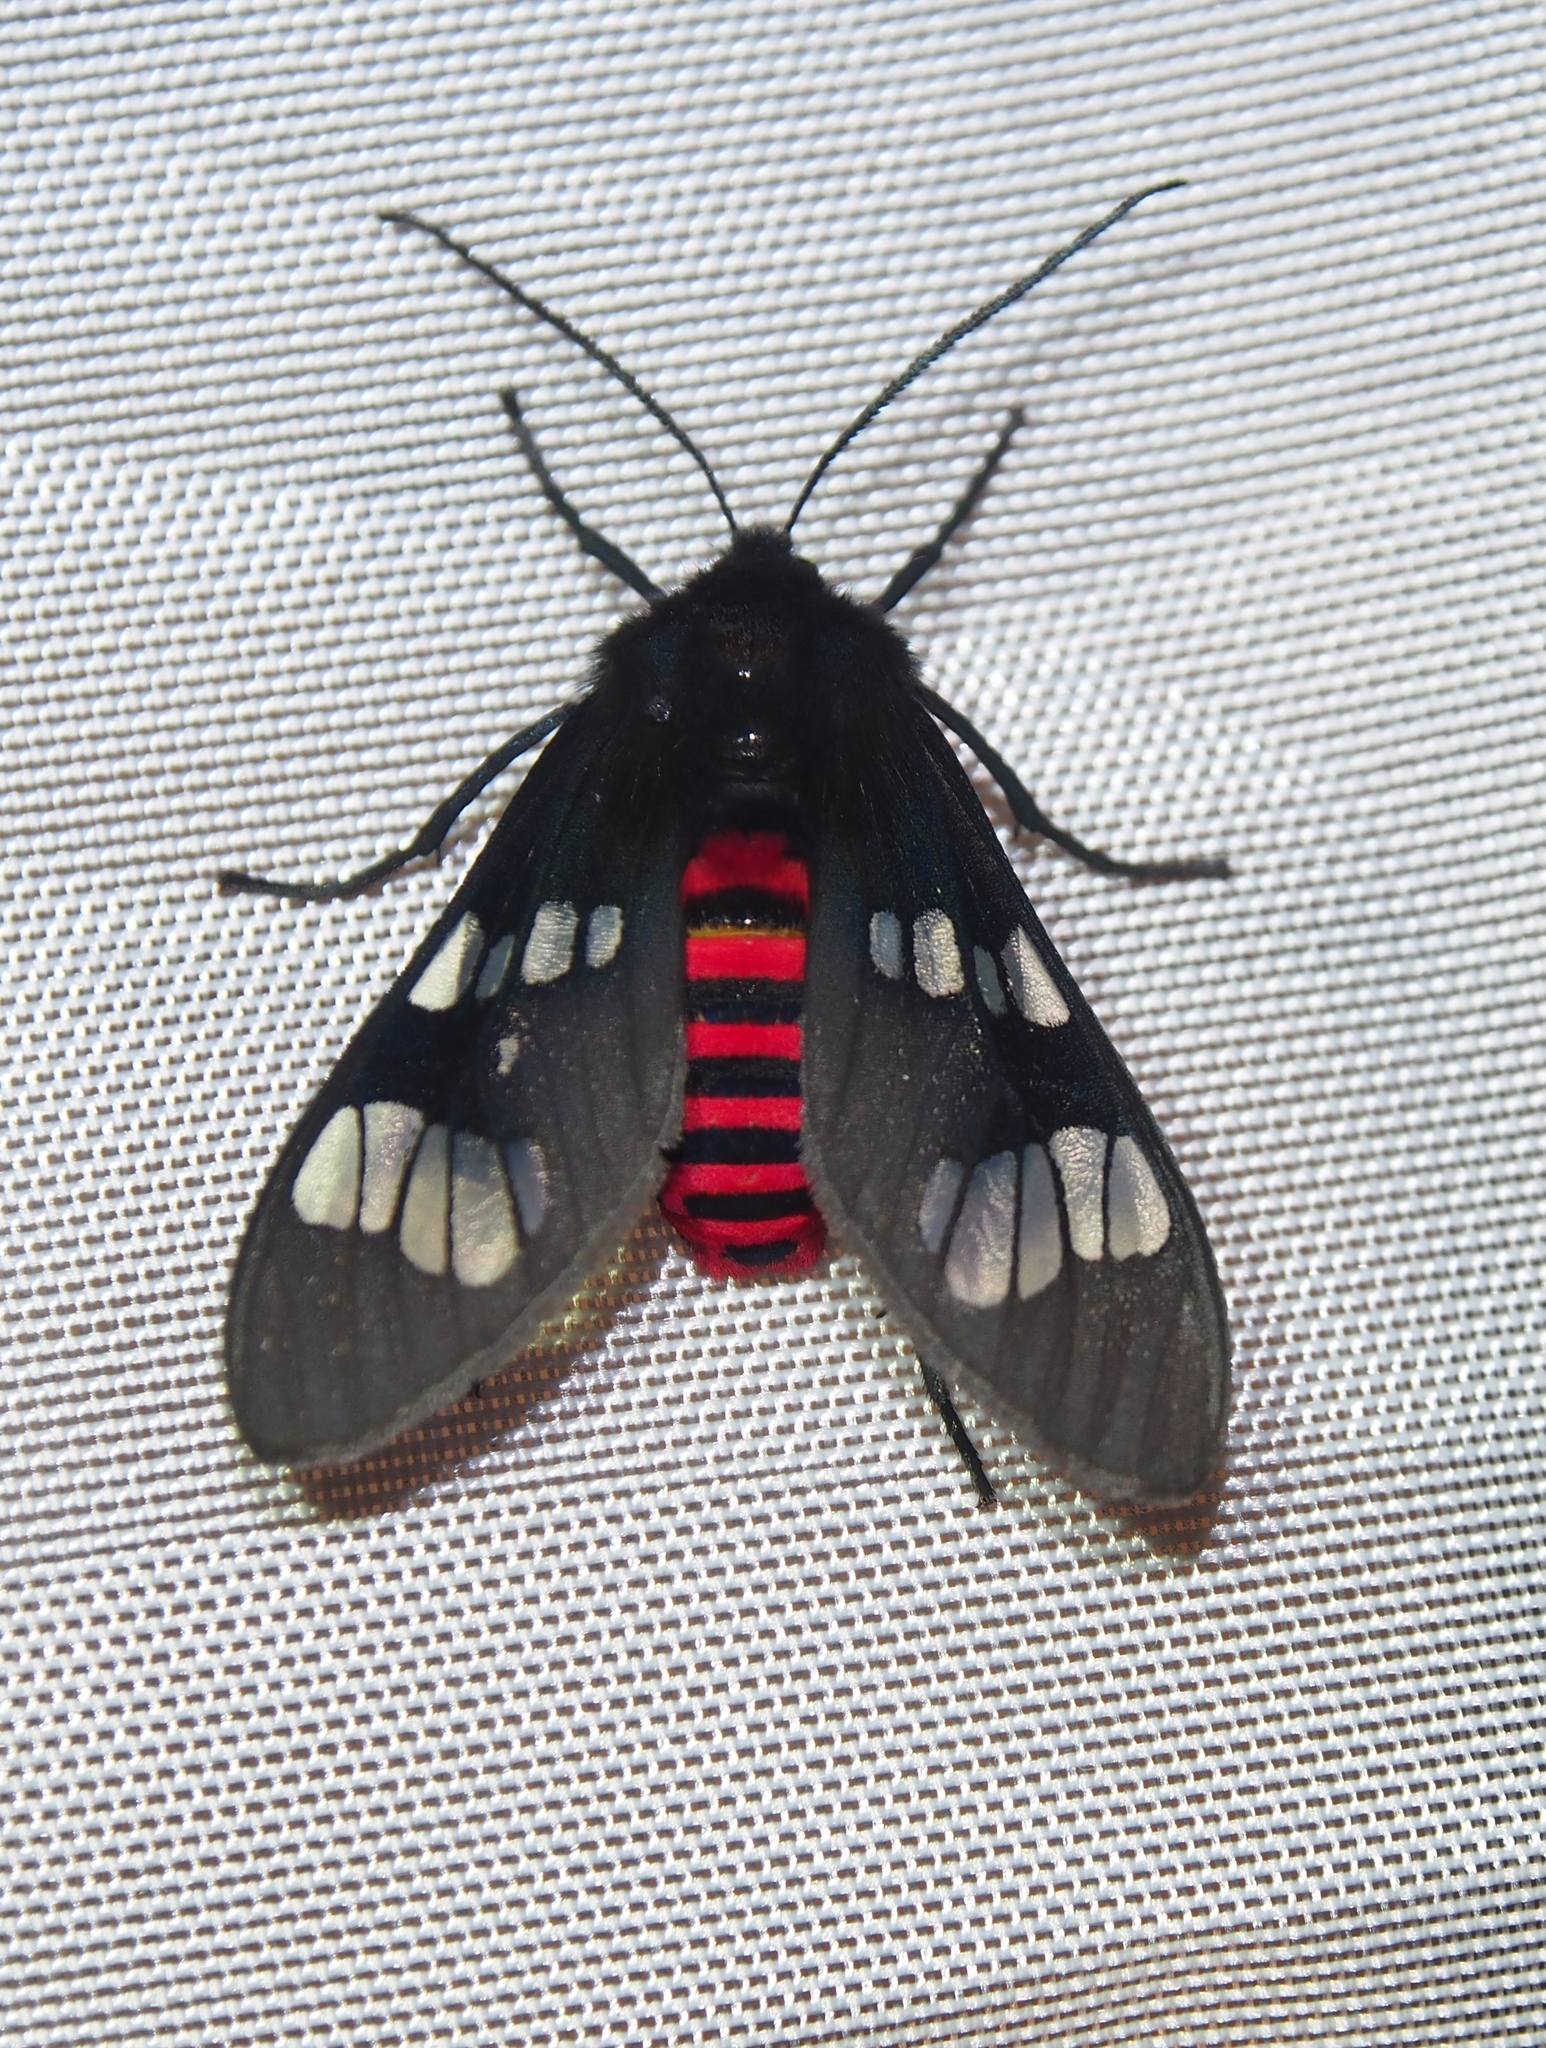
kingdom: Animalia
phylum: Arthropoda
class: Insecta
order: Lepidoptera
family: Erebidae
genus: Scelilasia
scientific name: Scelilasia erythrozonata
